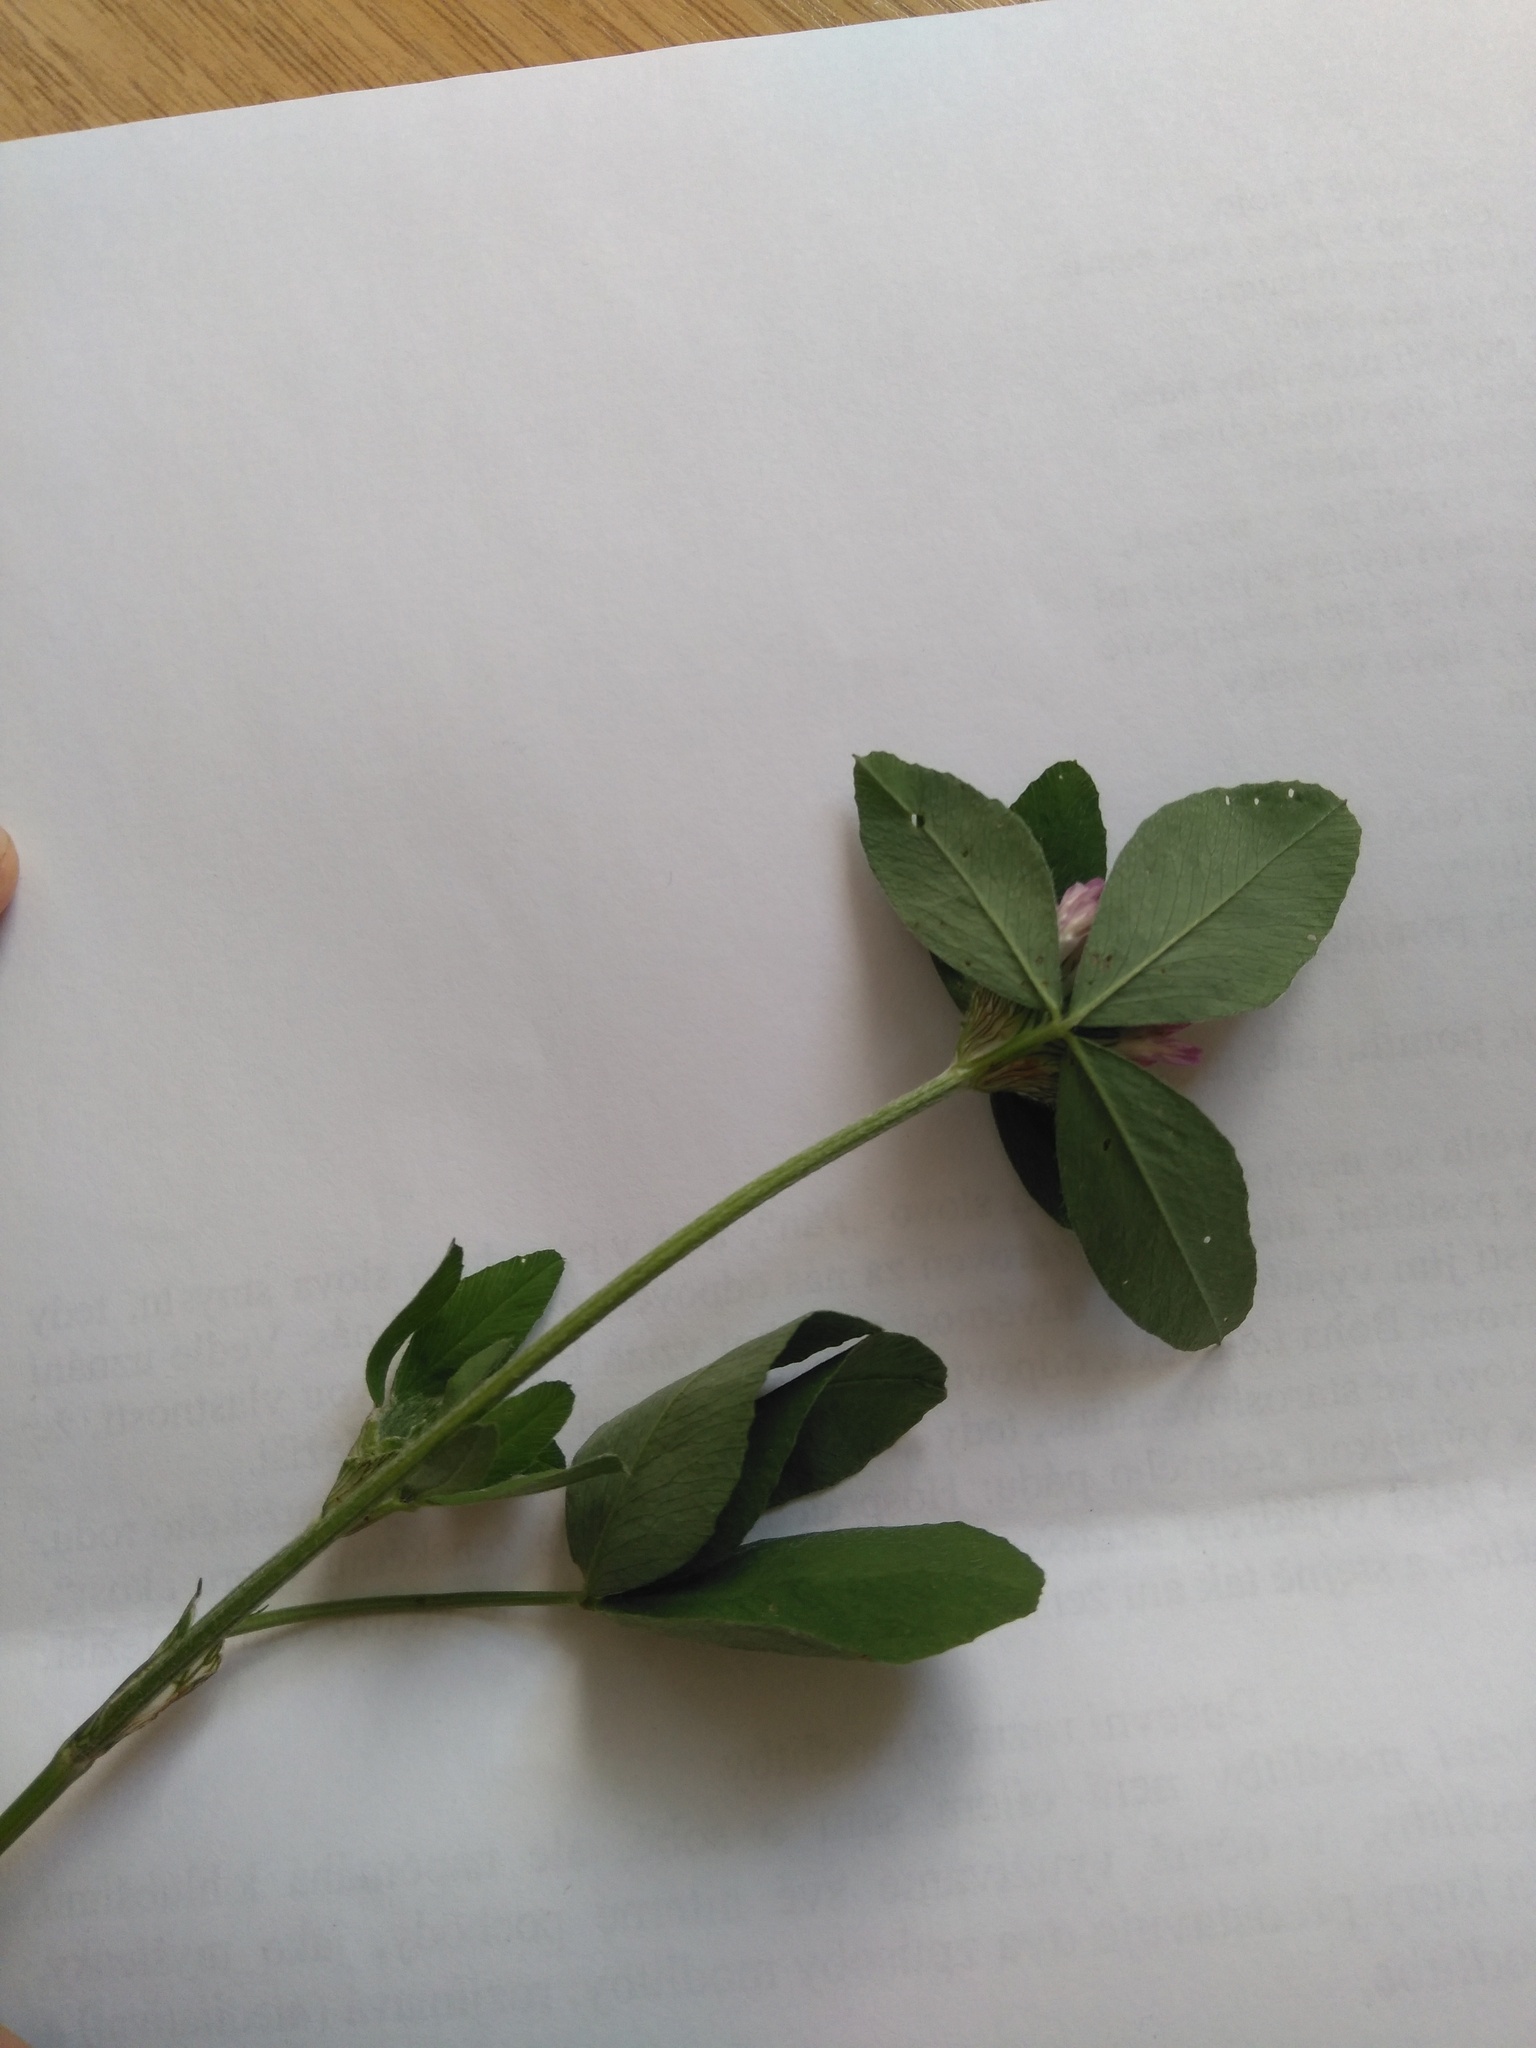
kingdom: Plantae
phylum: Tracheophyta
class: Magnoliopsida
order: Fabales
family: Fabaceae
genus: Trifolium
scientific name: Trifolium pratense
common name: Red clover
